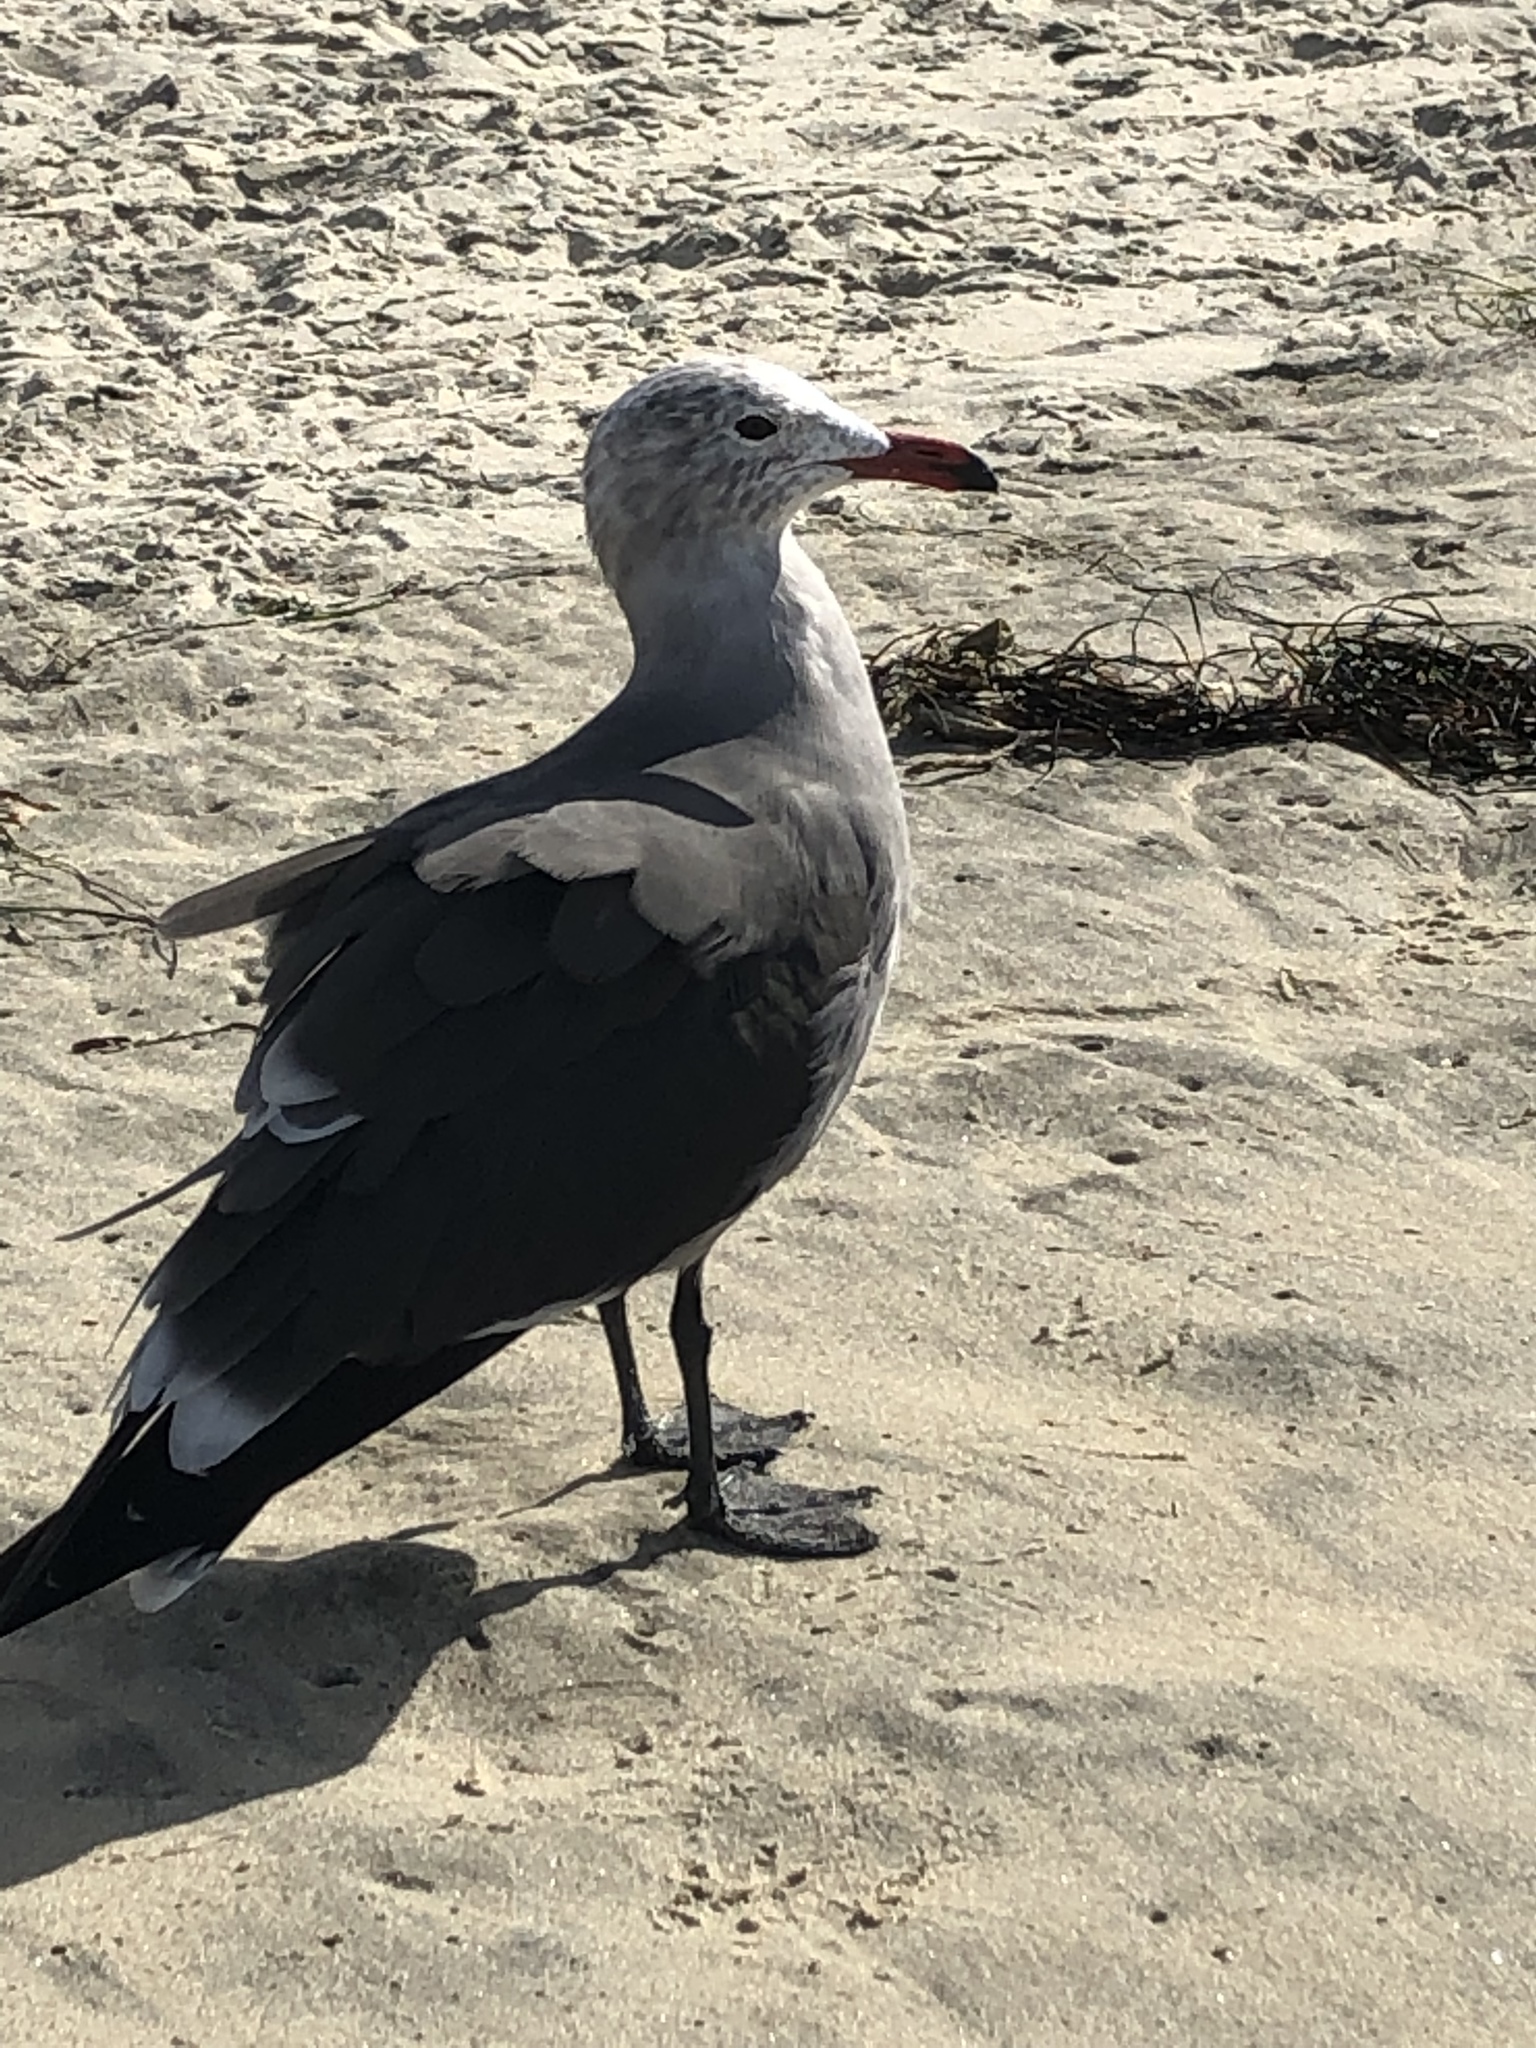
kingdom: Animalia
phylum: Chordata
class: Aves
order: Charadriiformes
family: Laridae
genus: Larus
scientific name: Larus heermanni
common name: Heermann's gull
